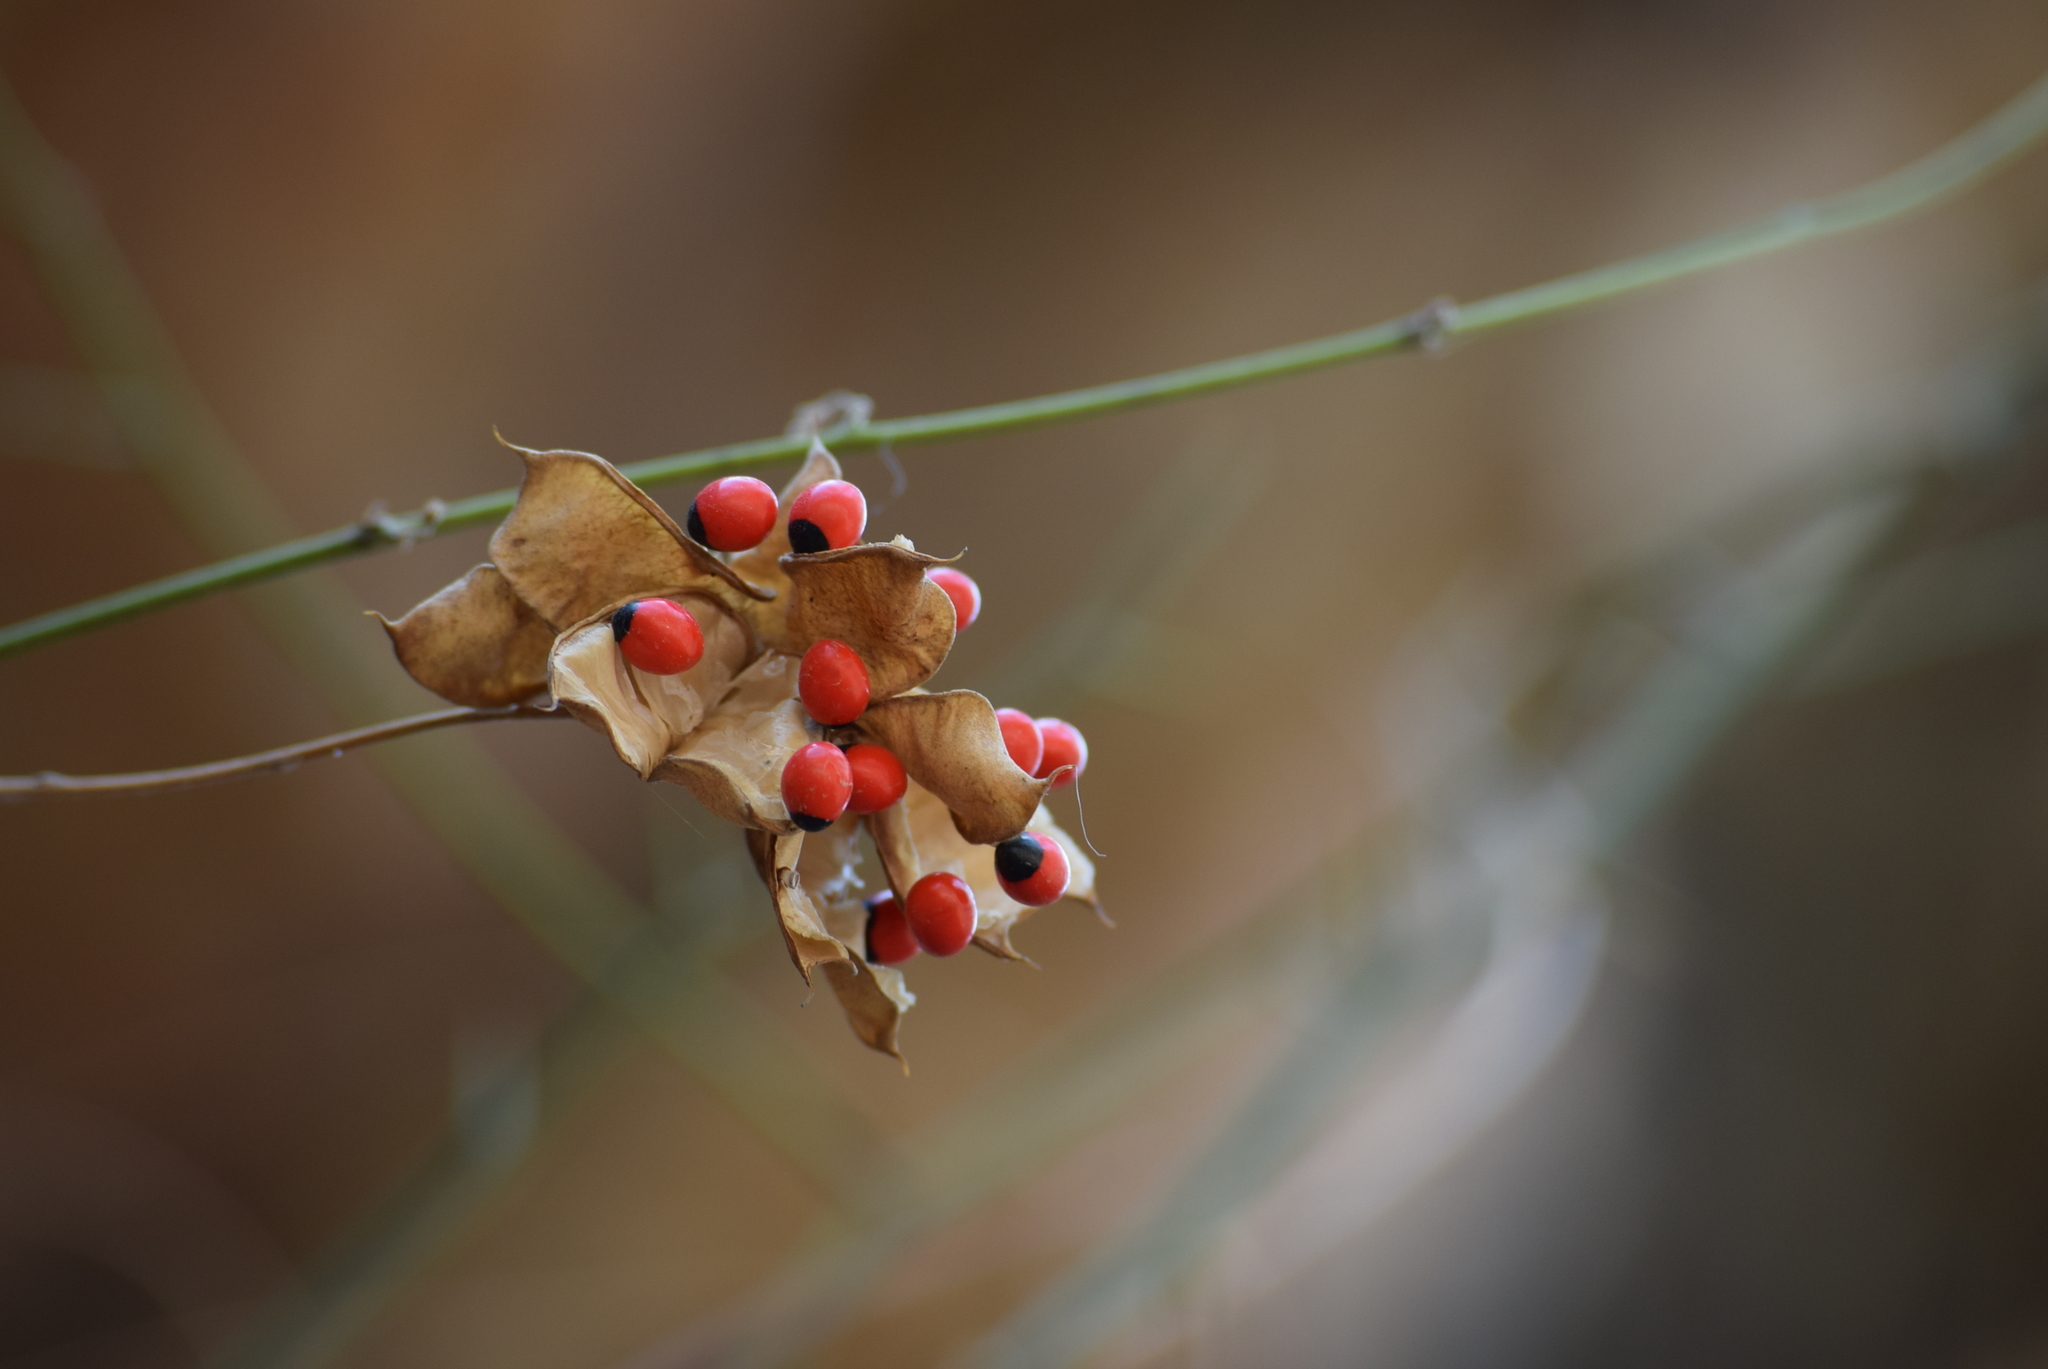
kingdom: Plantae
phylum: Tracheophyta
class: Magnoliopsida
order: Fabales
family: Fabaceae
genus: Abrus
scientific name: Abrus precatorius
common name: Rosarypea
